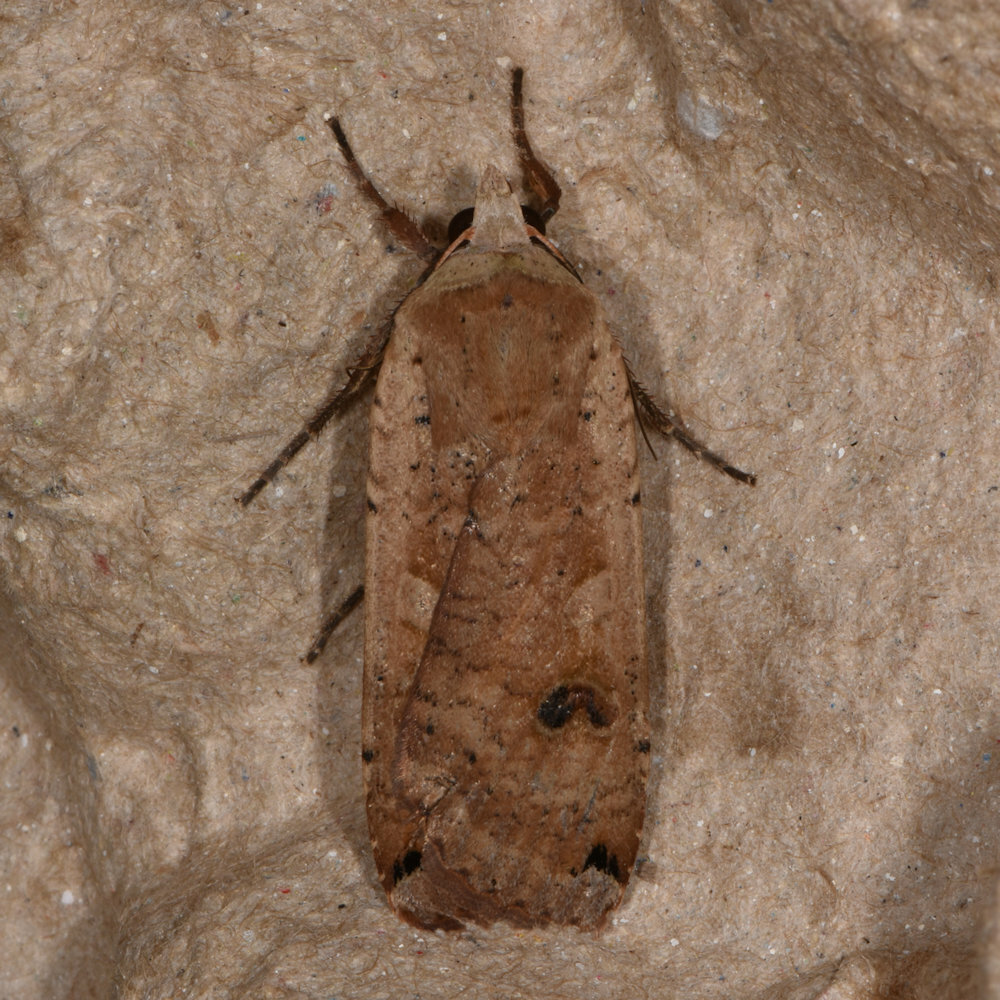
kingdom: Animalia
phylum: Arthropoda
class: Insecta
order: Lepidoptera
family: Noctuidae
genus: Noctua
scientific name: Noctua pronuba
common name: Large yellow underwing
